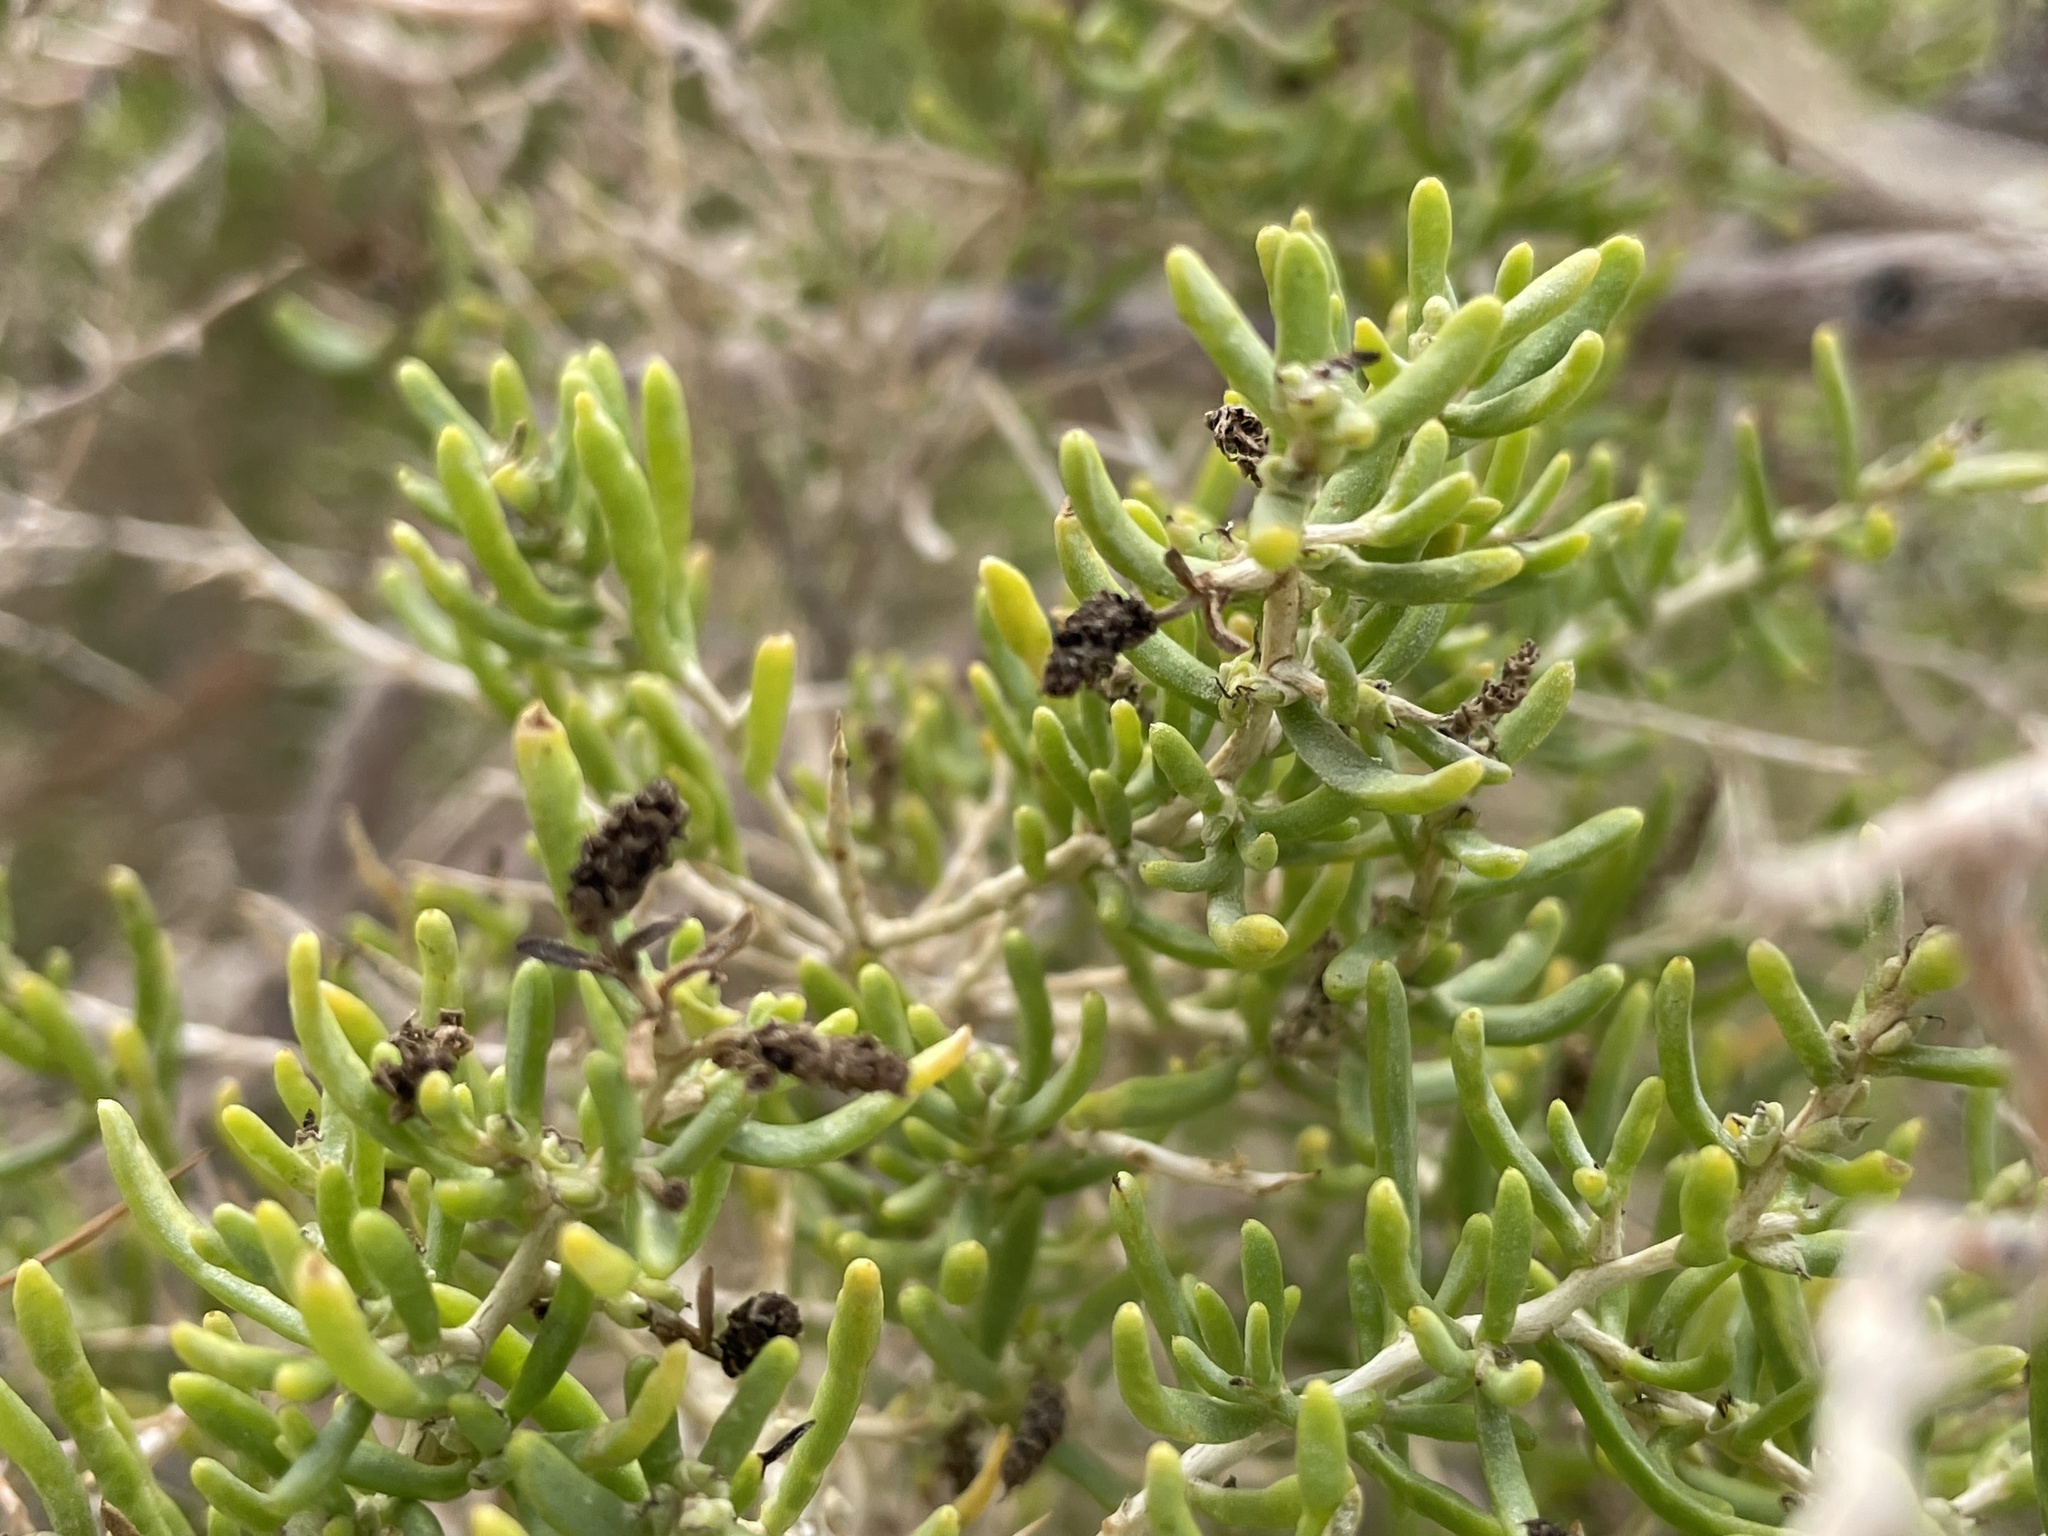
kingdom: Plantae
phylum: Tracheophyta
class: Magnoliopsida
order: Caryophyllales
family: Sarcobataceae
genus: Sarcobatus
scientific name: Sarcobatus vermiculatus
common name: Greasewood
